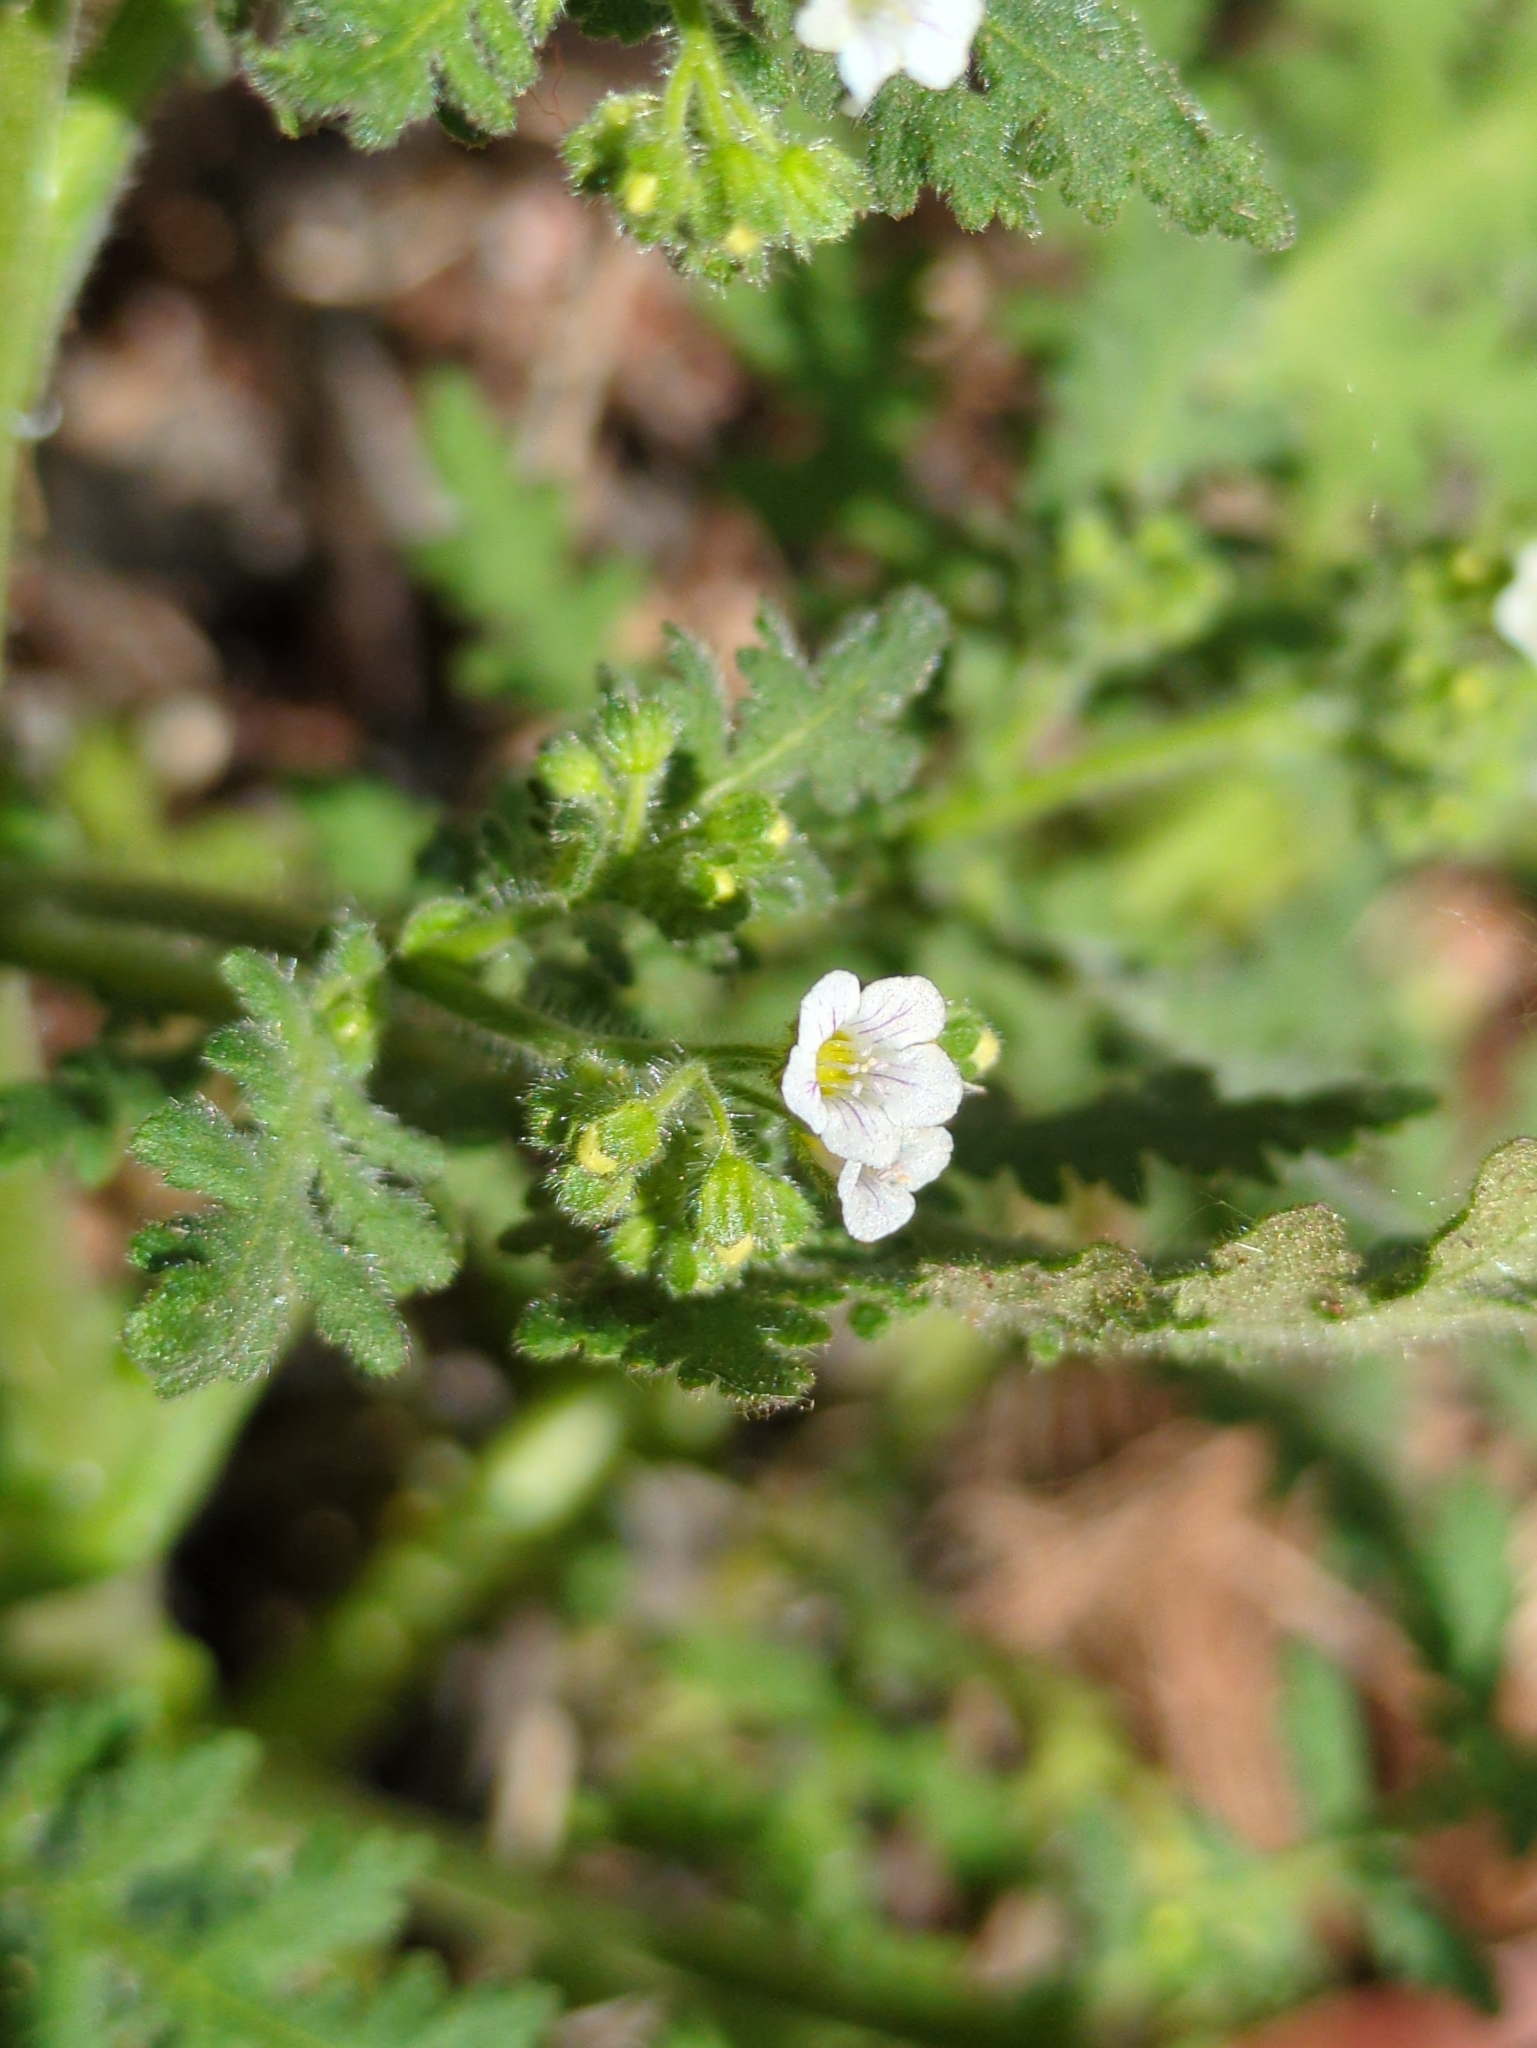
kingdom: Plantae
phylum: Tracheophyta
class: Magnoliopsida
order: Boraginales
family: Hydrophyllaceae
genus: Eucrypta
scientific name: Eucrypta chrysanthemifolia
